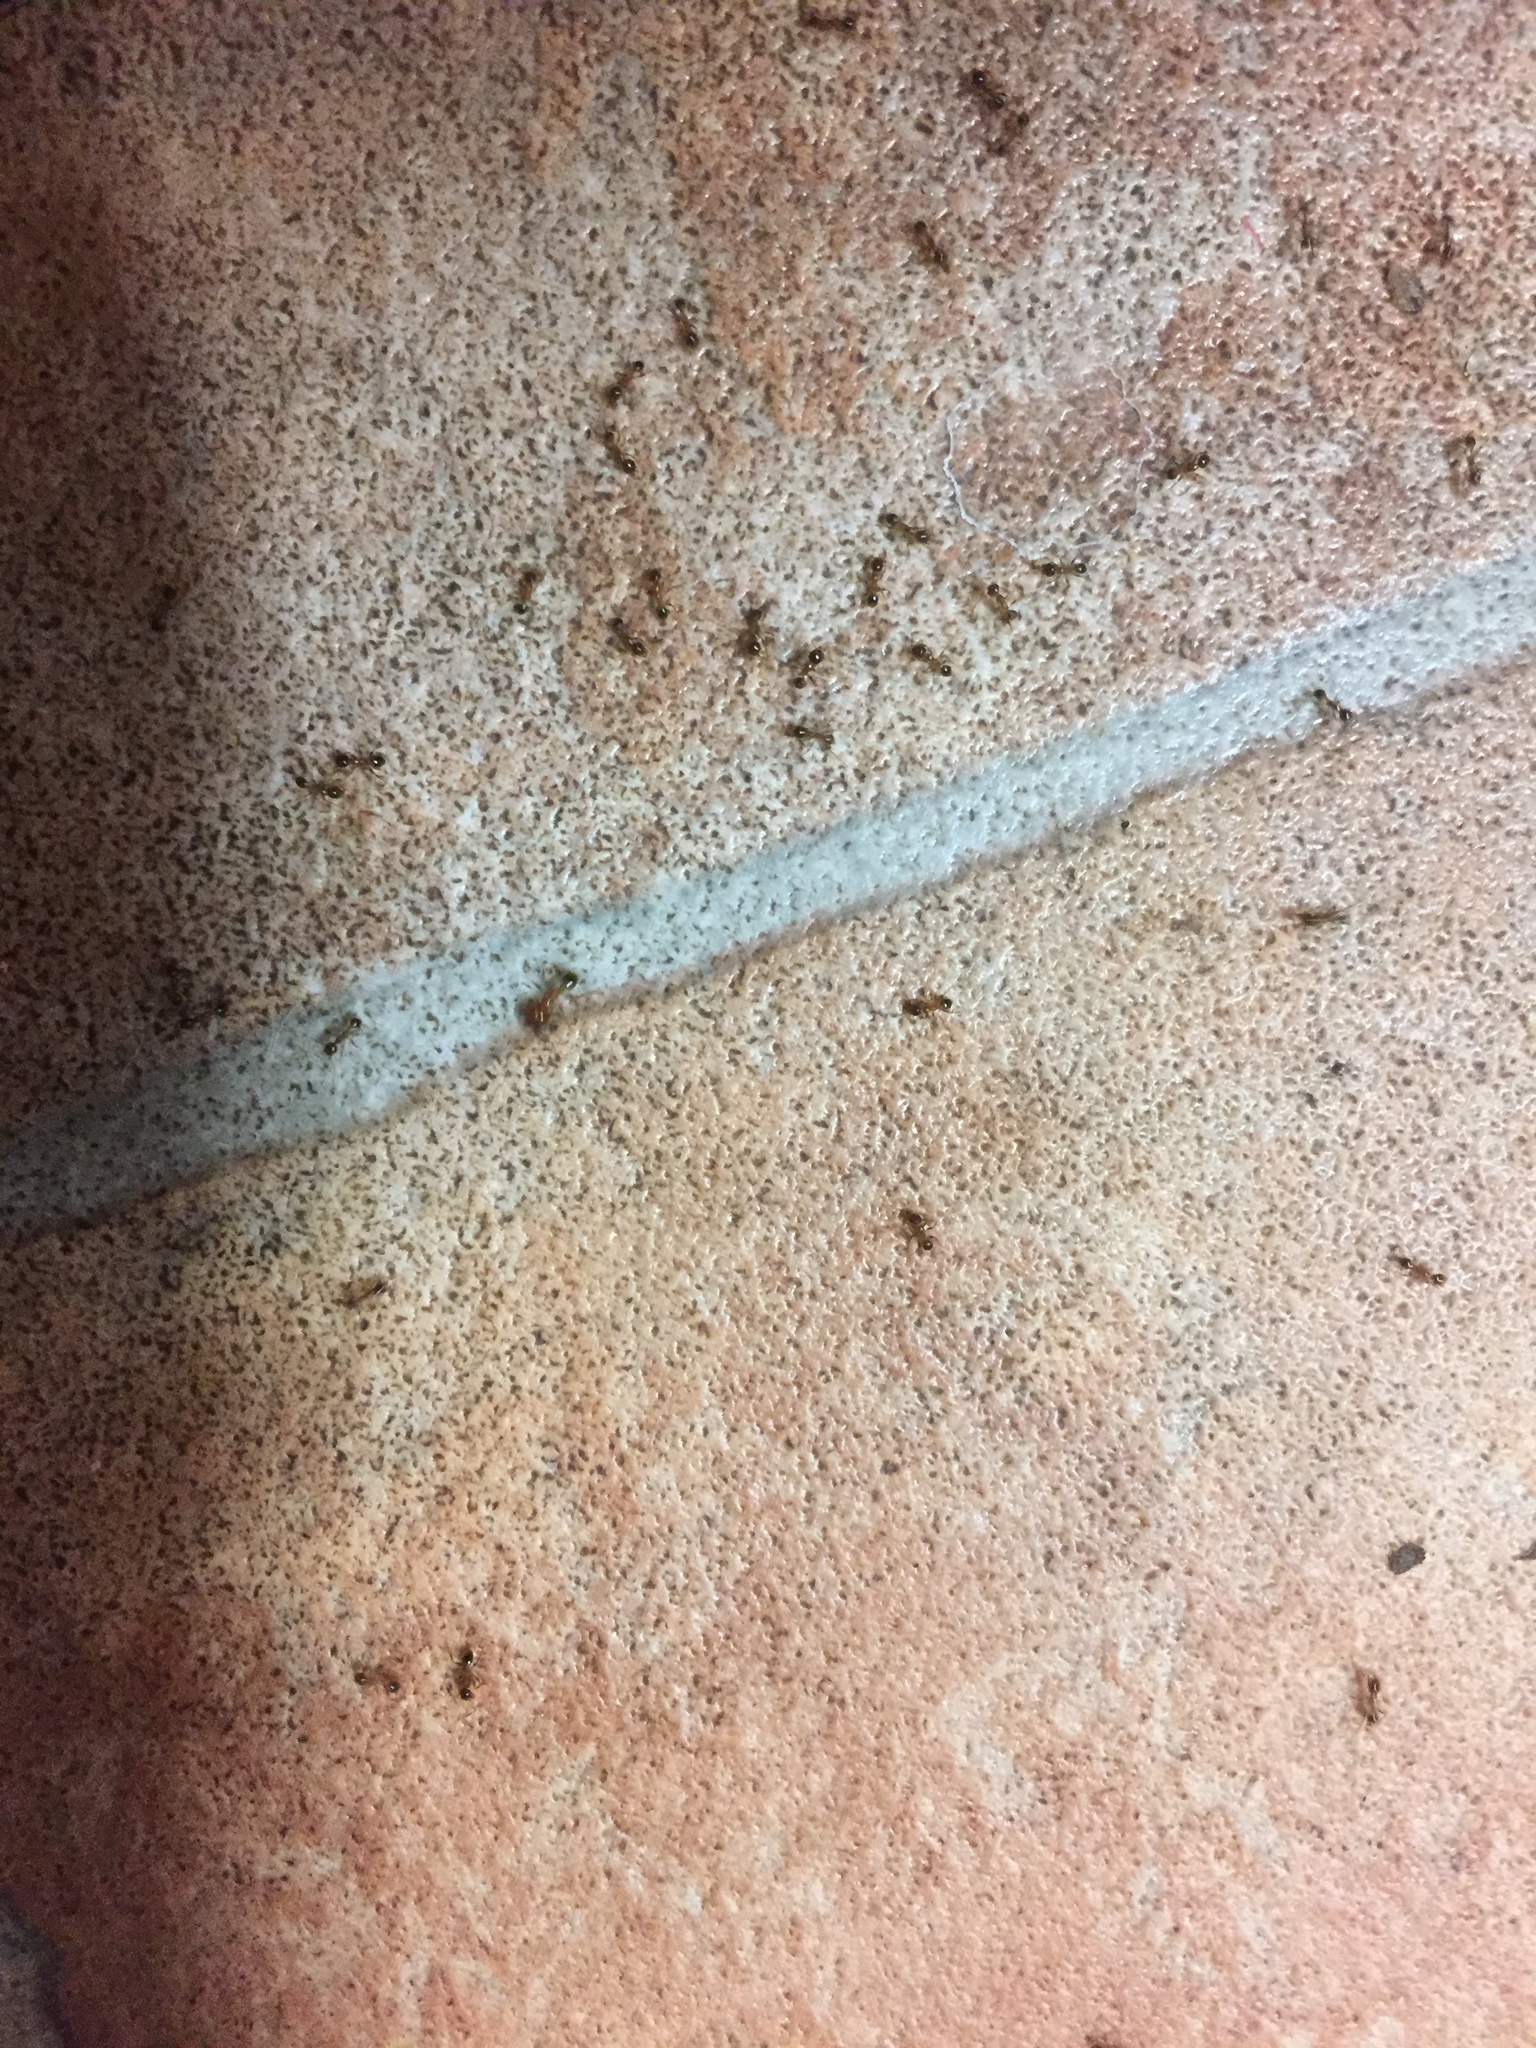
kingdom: Animalia
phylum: Arthropoda
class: Insecta
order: Hymenoptera
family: Formicidae
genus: Pheidole
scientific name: Pheidole megacephala
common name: Bigheaded ant
